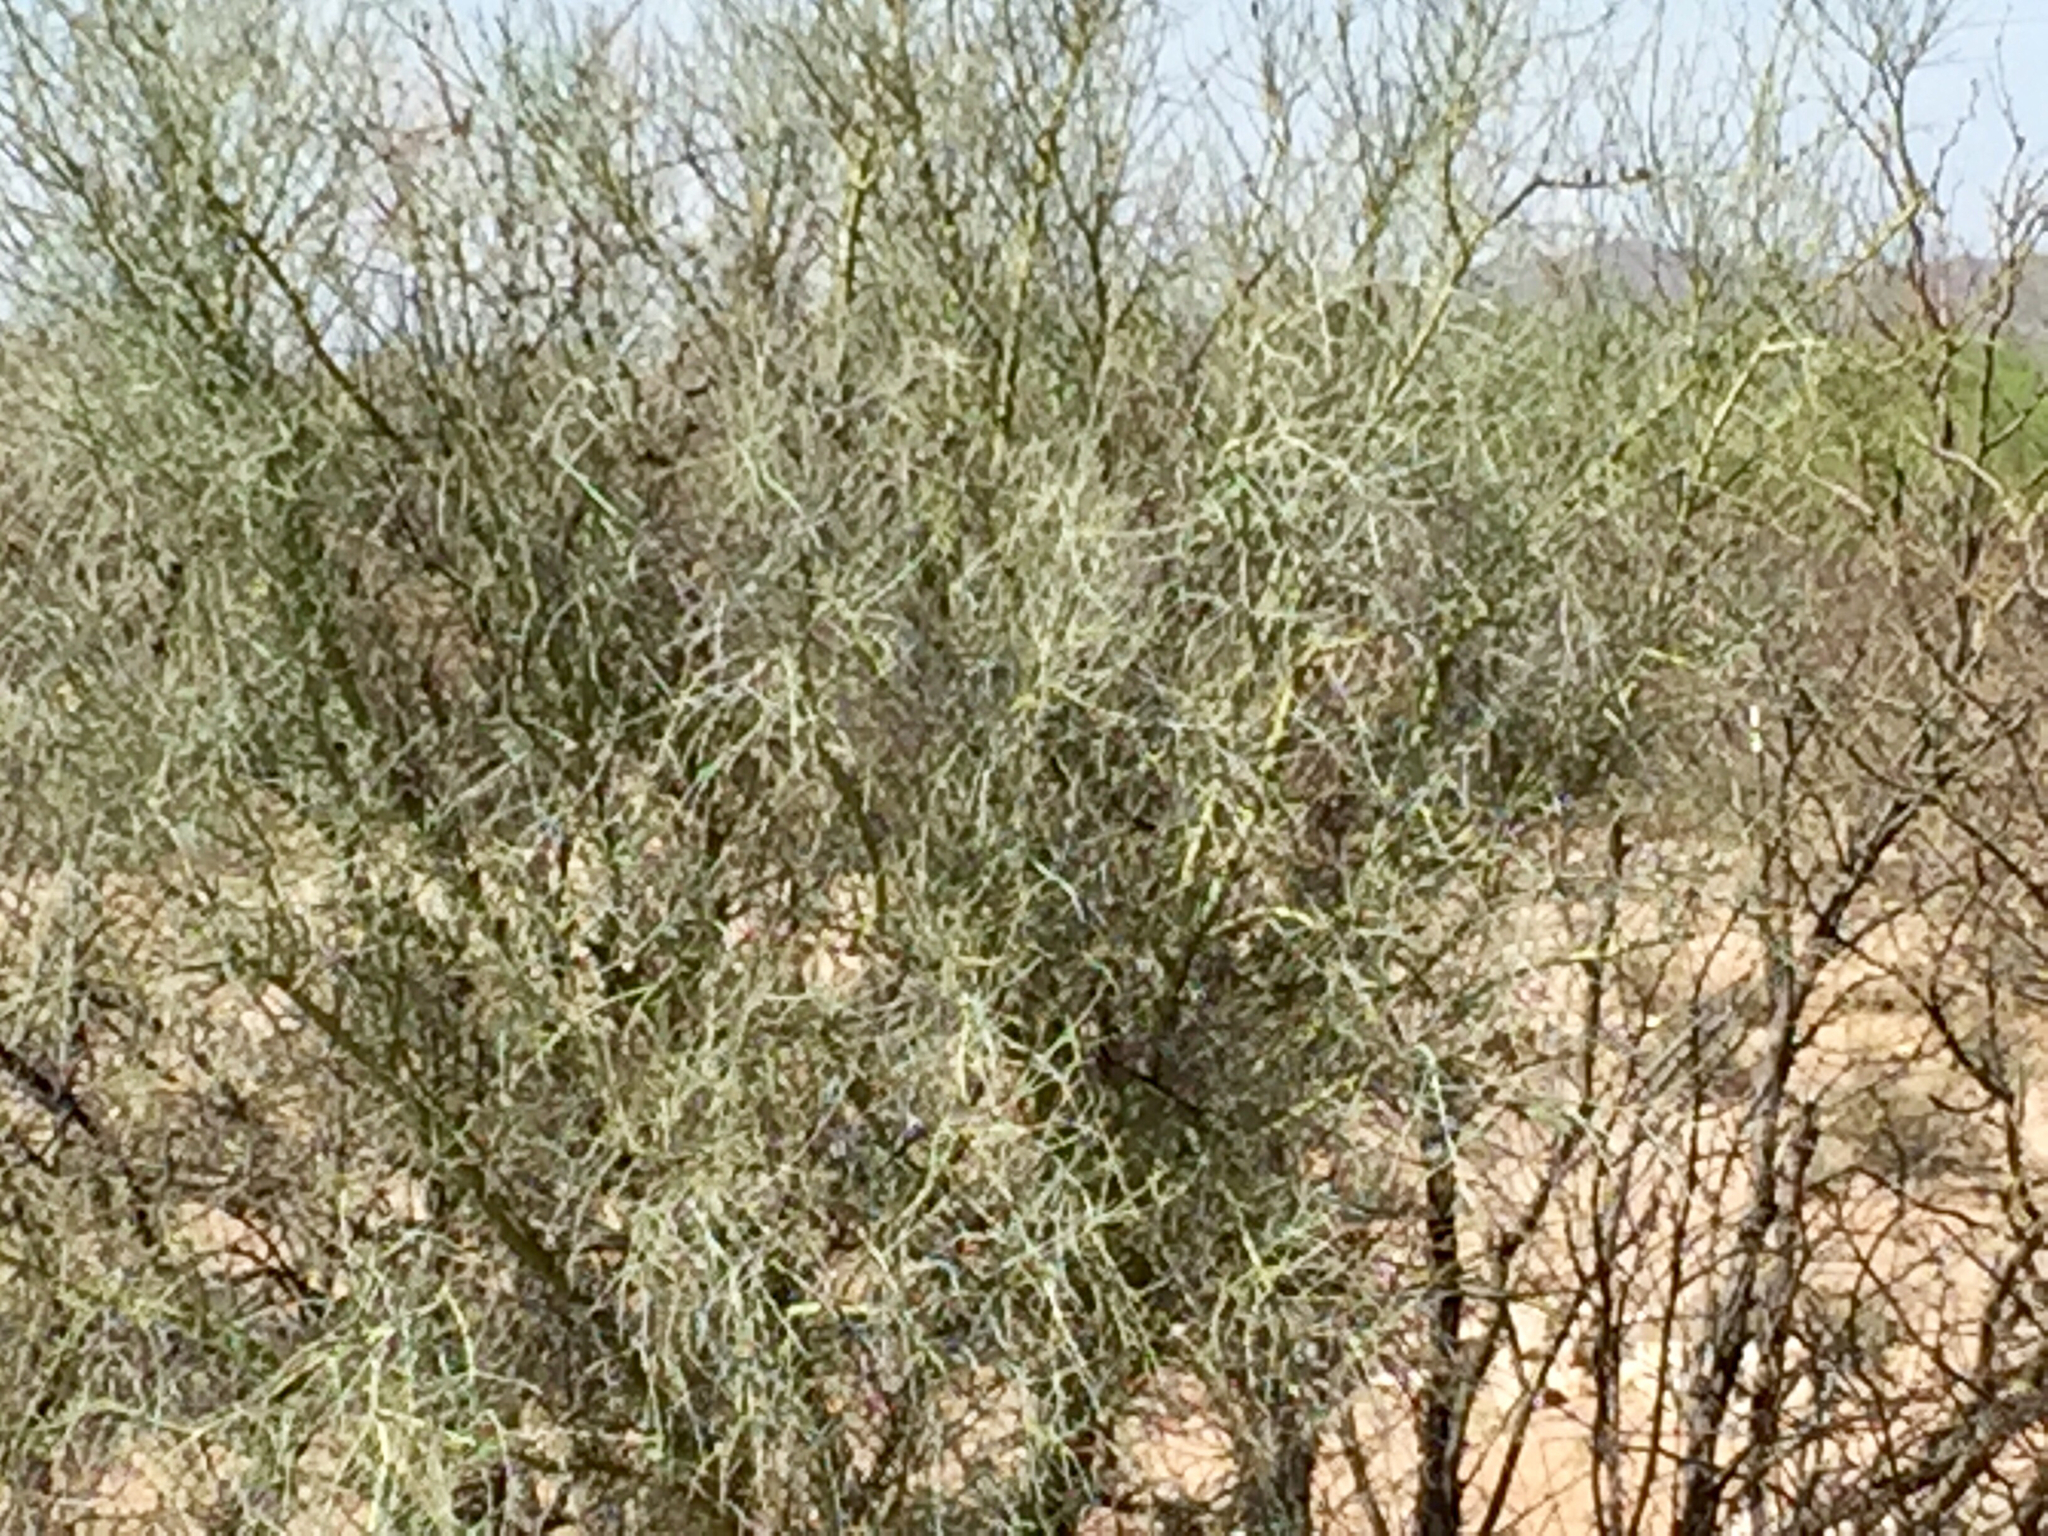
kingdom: Plantae
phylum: Tracheophyta
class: Magnoliopsida
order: Fabales
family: Fabaceae
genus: Parkinsonia
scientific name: Parkinsonia florida
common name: Blue paloverde
